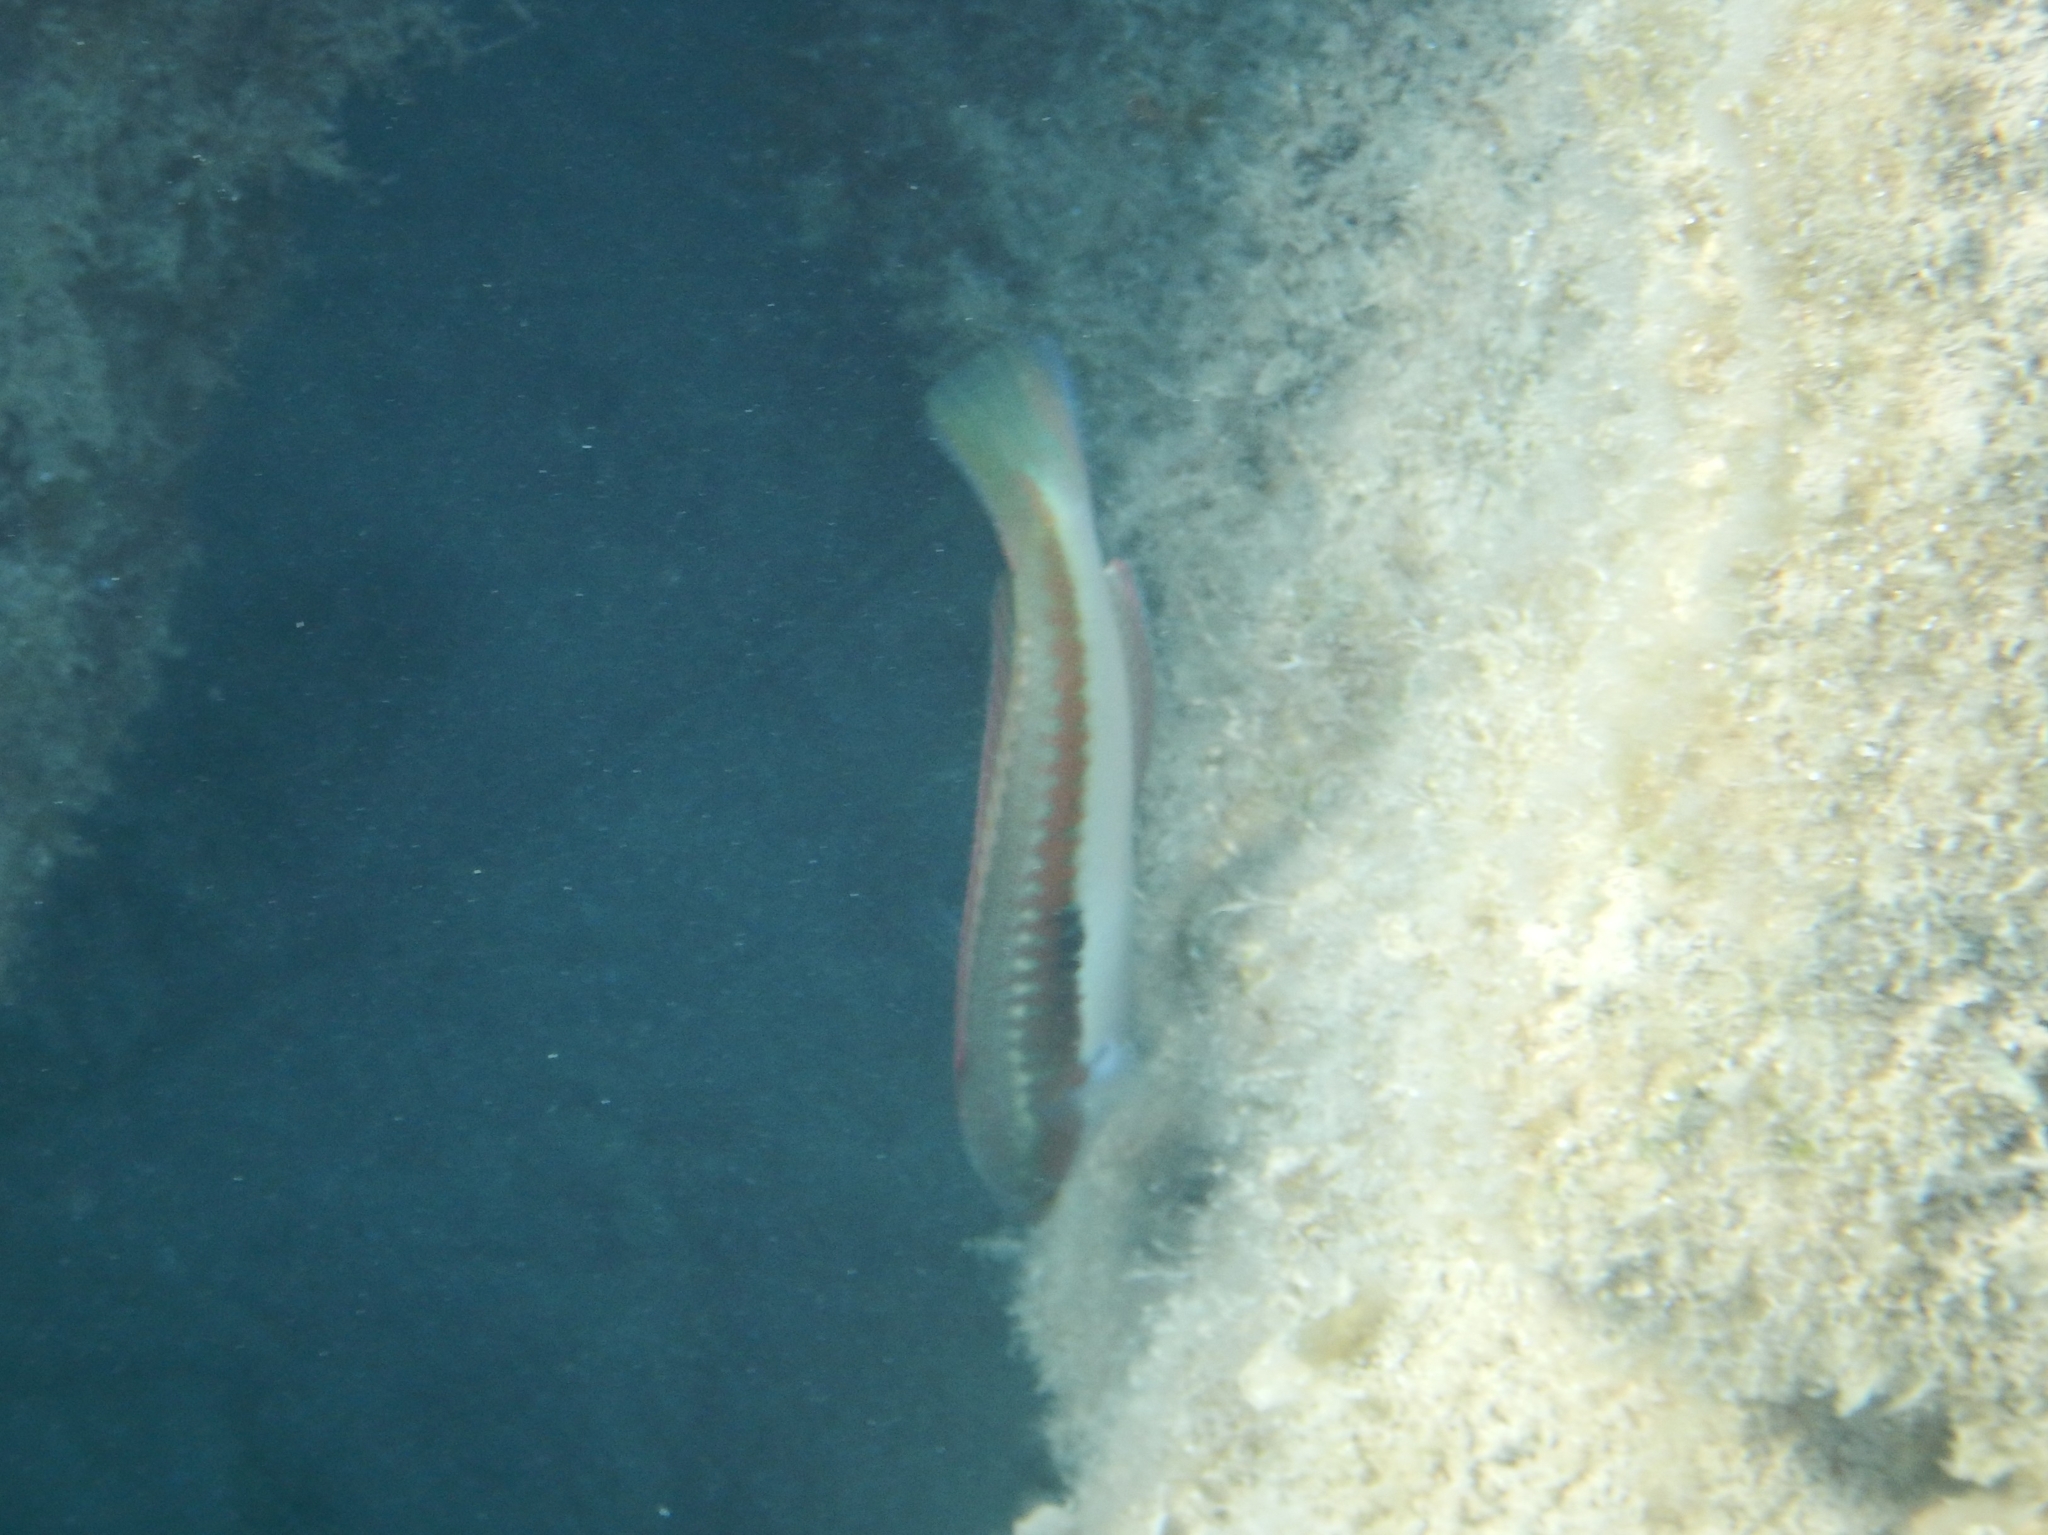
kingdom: Animalia
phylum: Chordata
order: Perciformes
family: Labridae
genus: Coris
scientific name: Coris julis
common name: Rainbow wrasse
